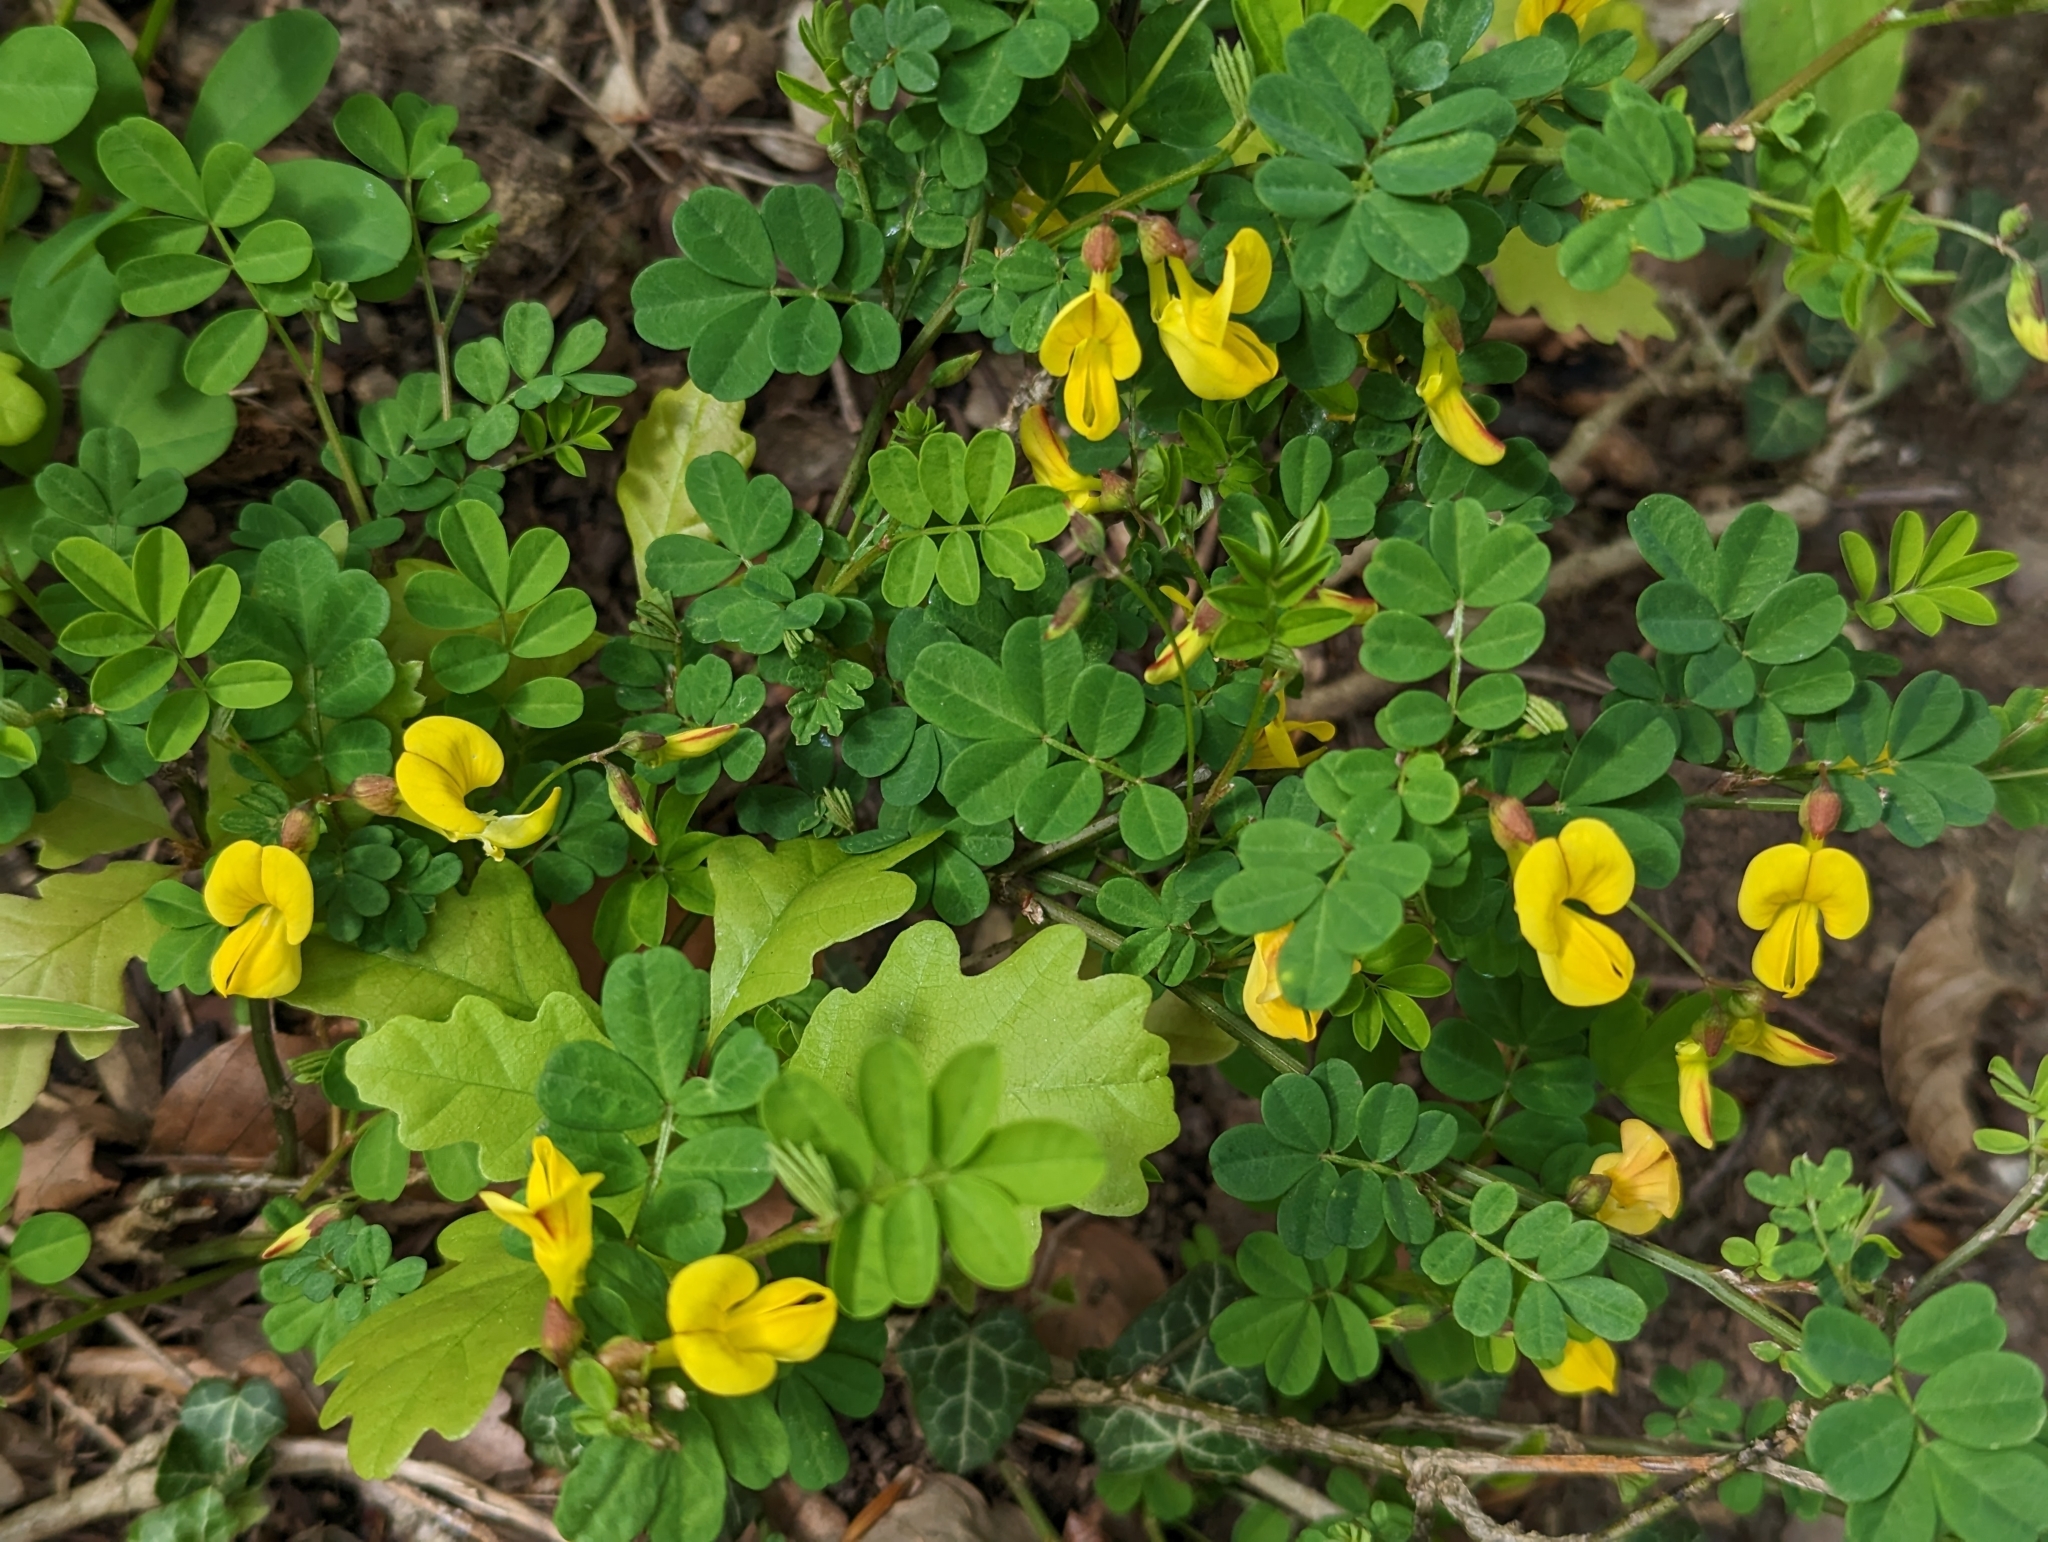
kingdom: Plantae
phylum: Tracheophyta
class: Magnoliopsida
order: Fabales
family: Fabaceae
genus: Hippocrepis
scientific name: Hippocrepis emerus
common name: Scorpion senna
